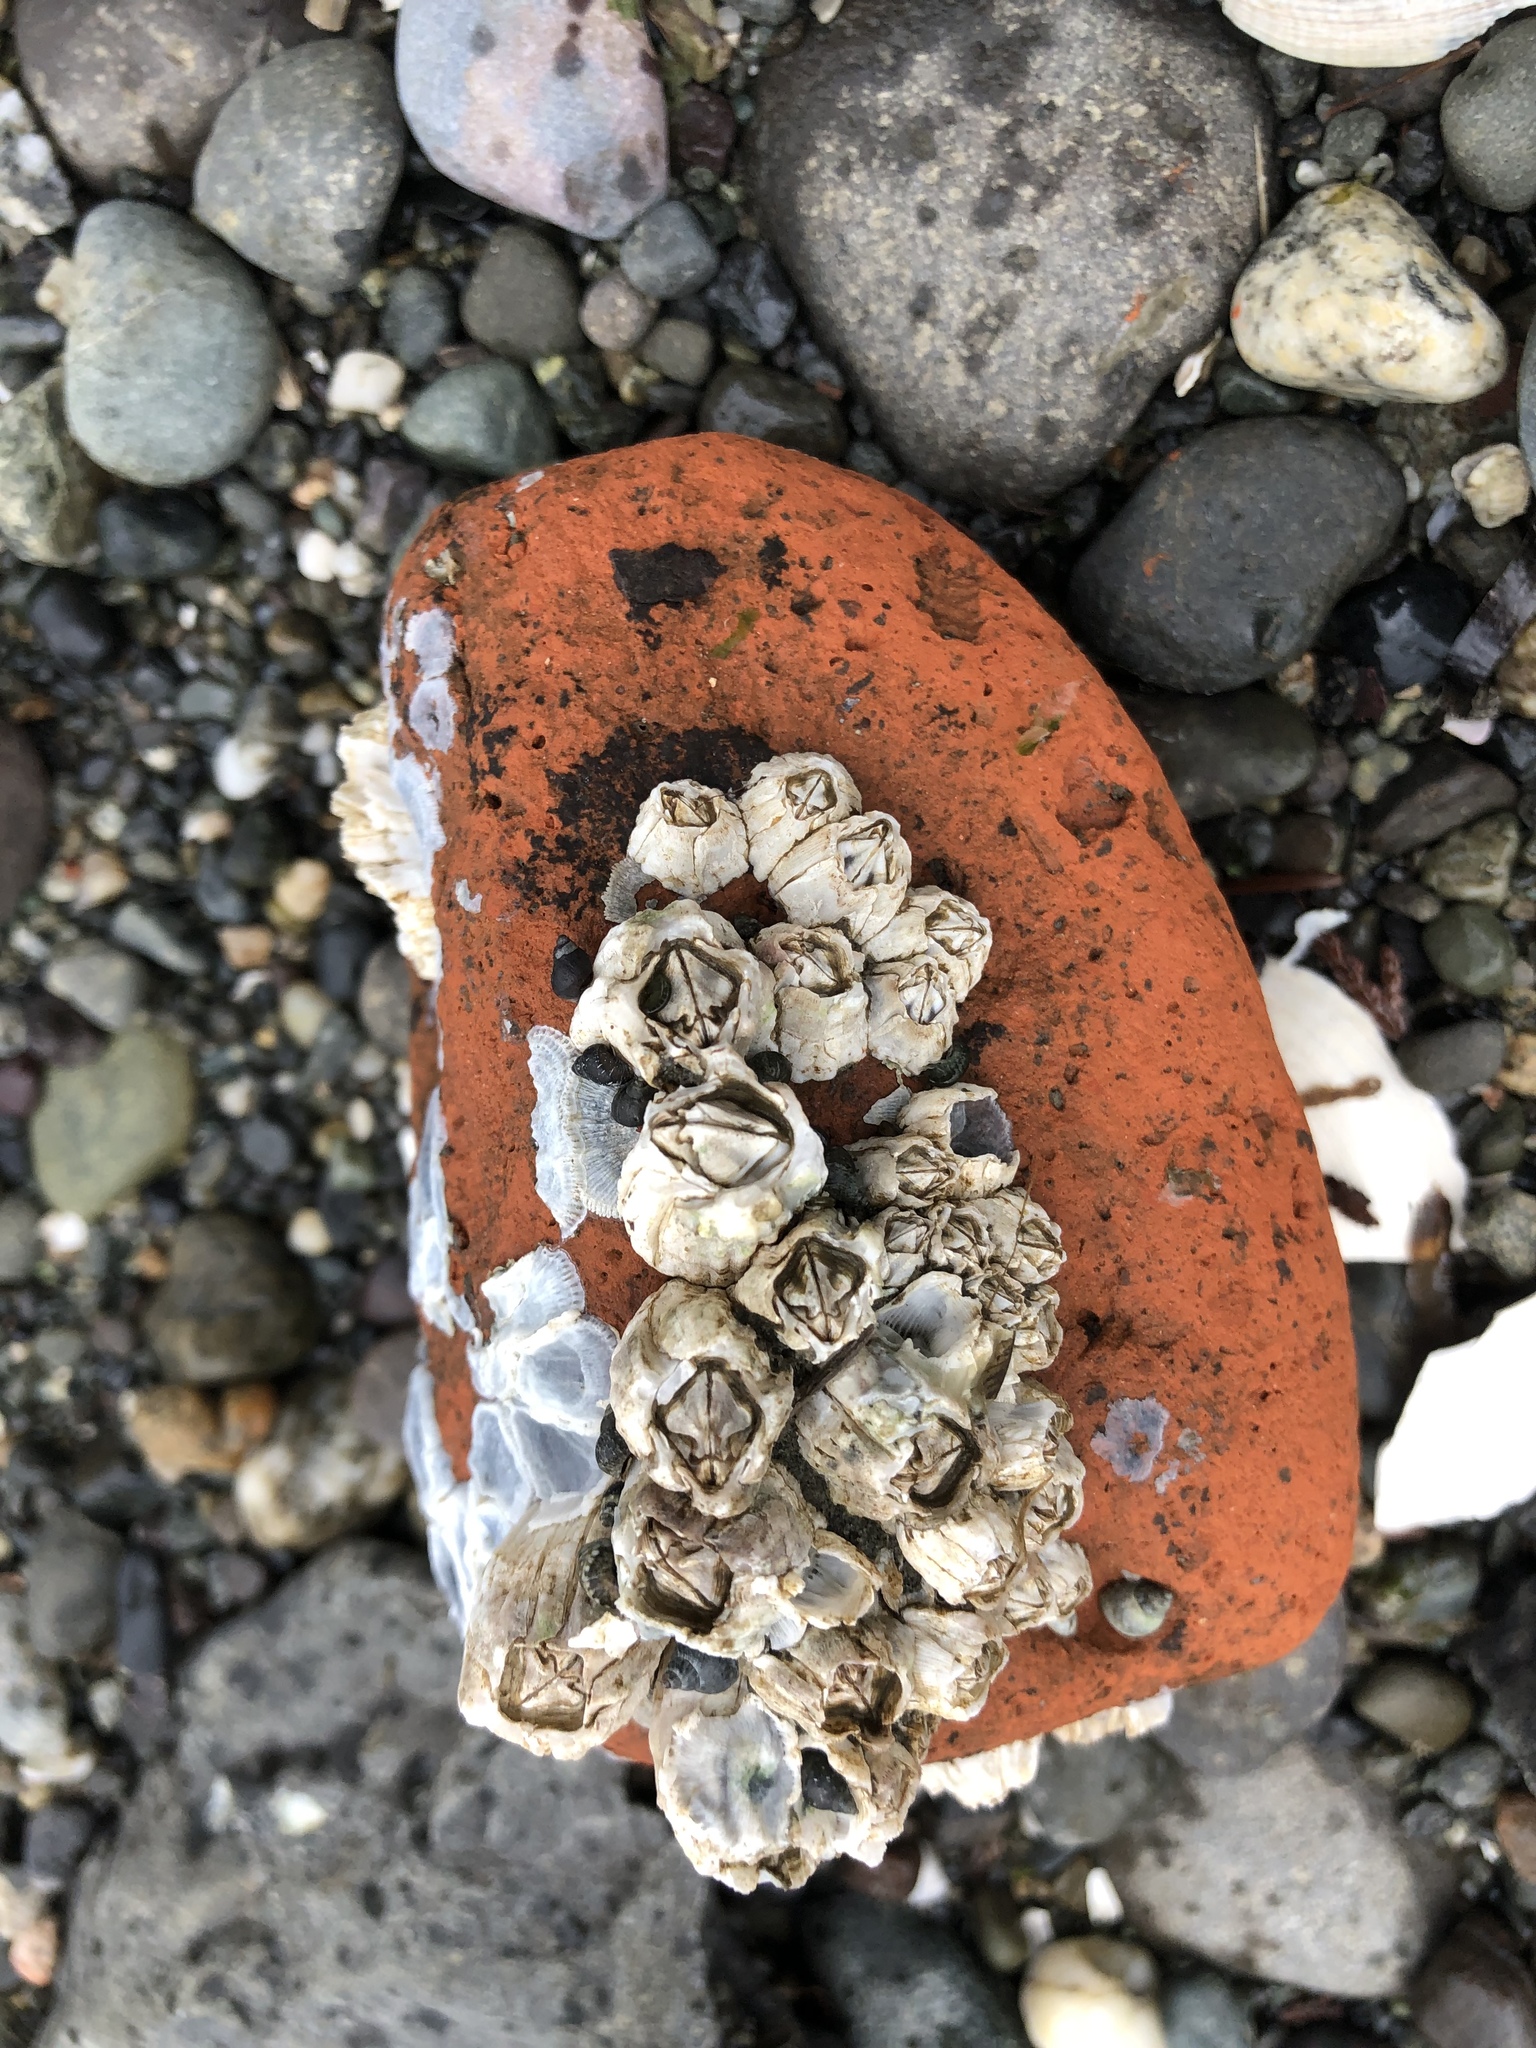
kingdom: Animalia
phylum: Arthropoda
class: Maxillopoda
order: Sessilia
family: Balanidae
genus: Balanus
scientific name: Balanus glandula
